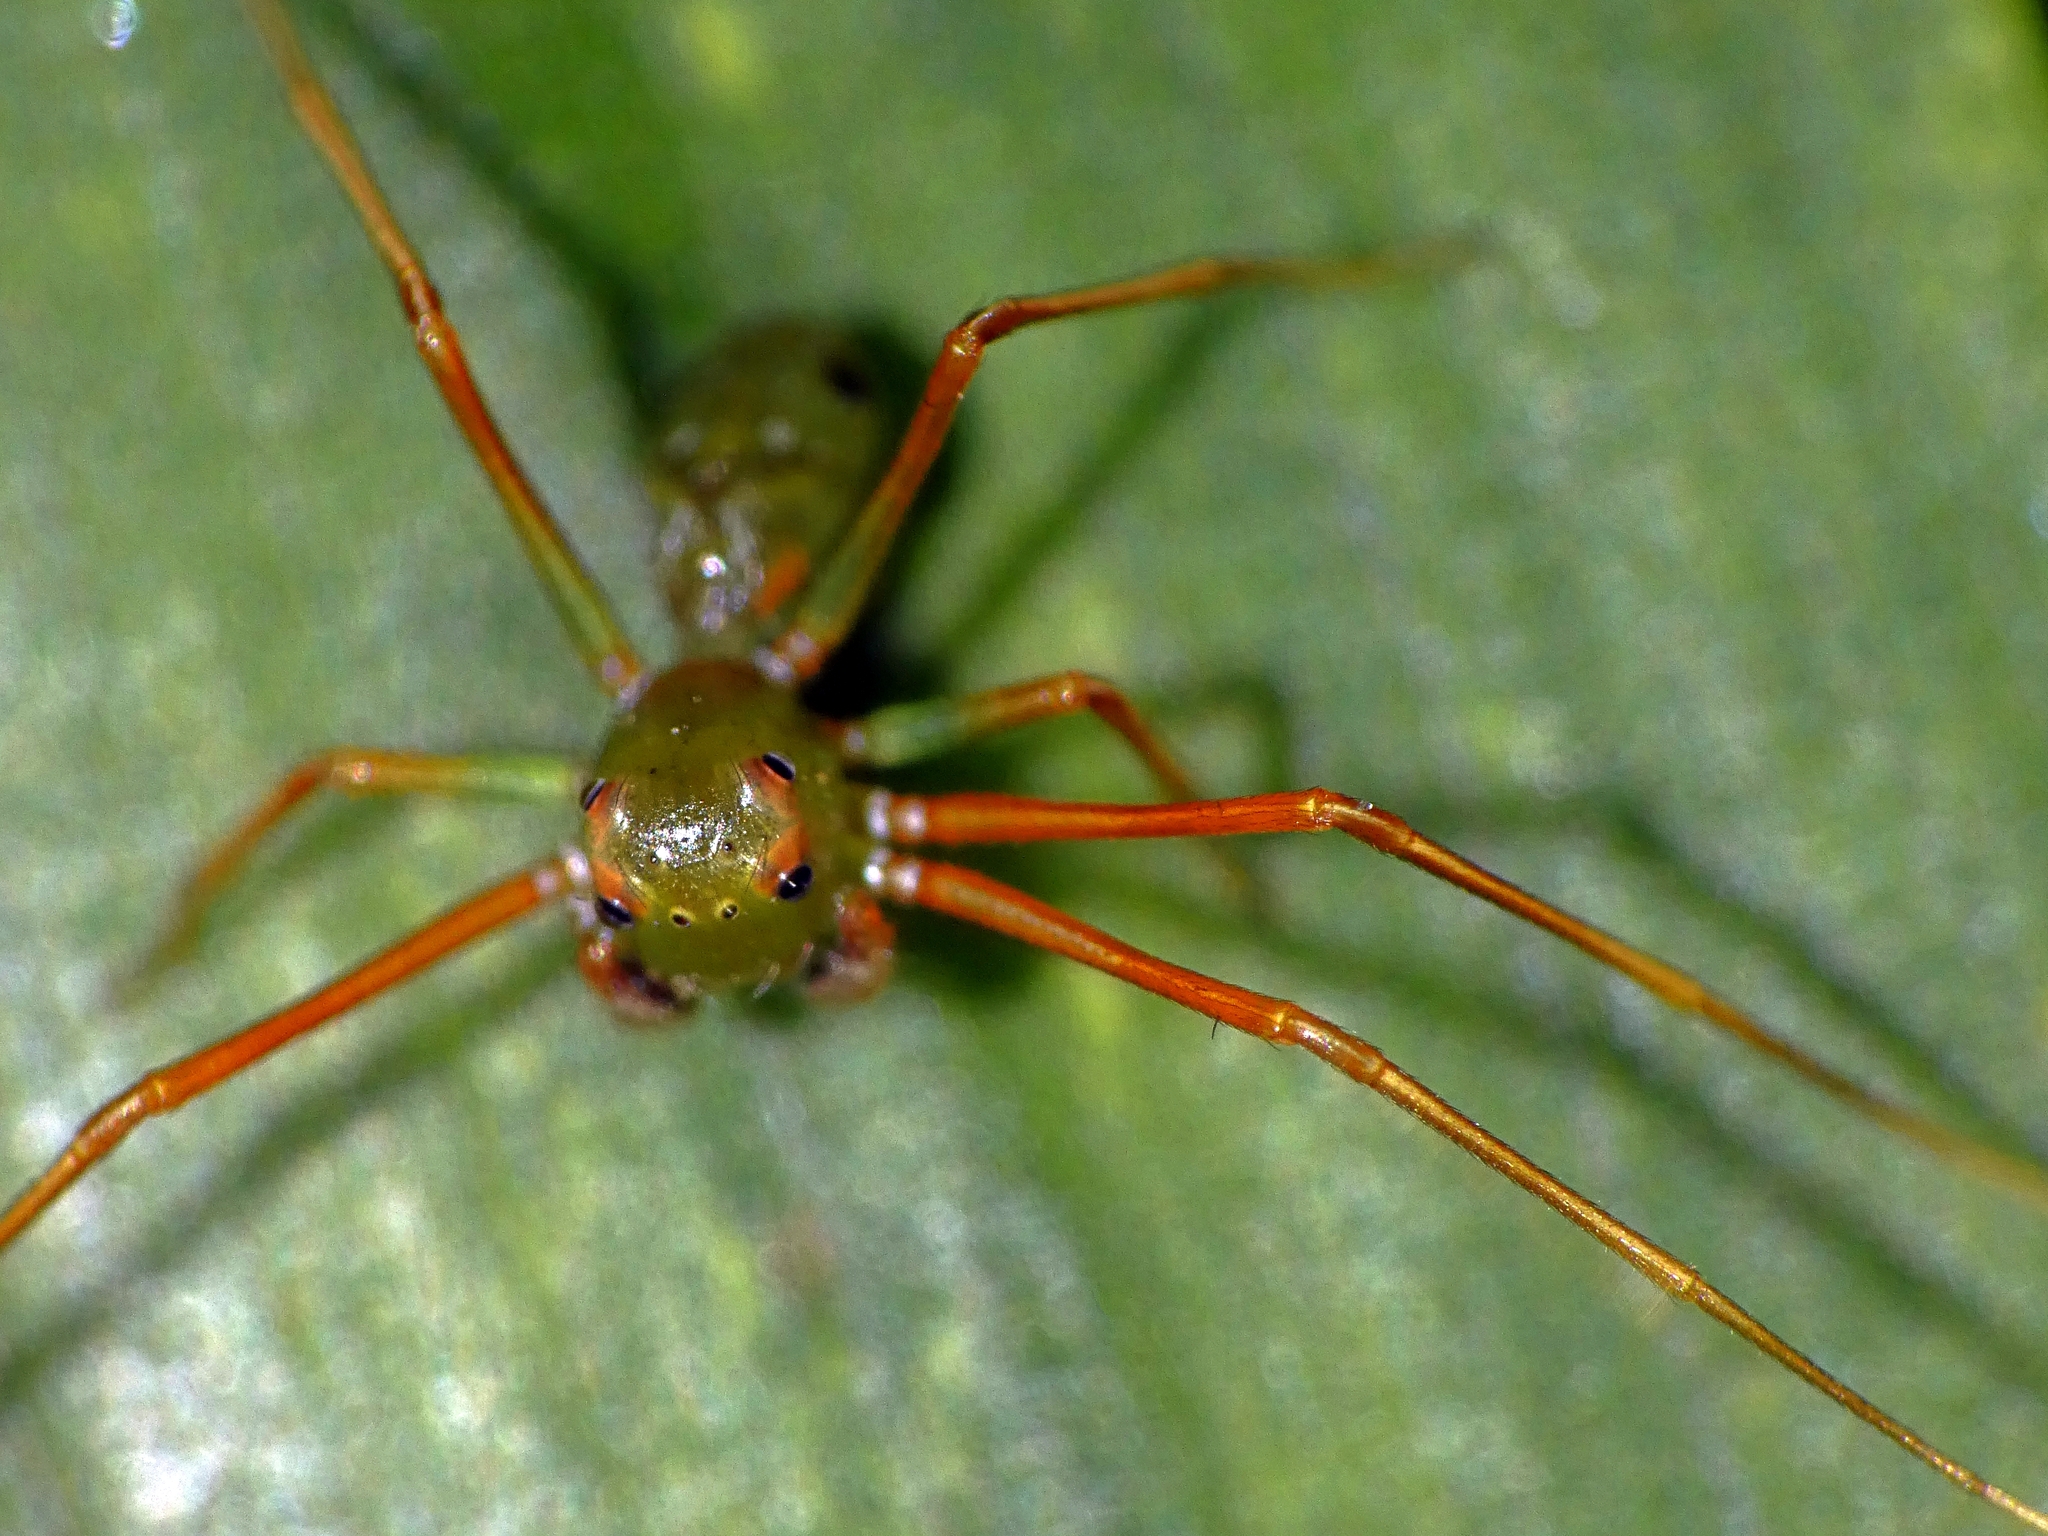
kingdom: Animalia
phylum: Arthropoda
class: Arachnida
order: Araneae
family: Thomisidae
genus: Amyciaea
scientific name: Amyciaea albomaculata
